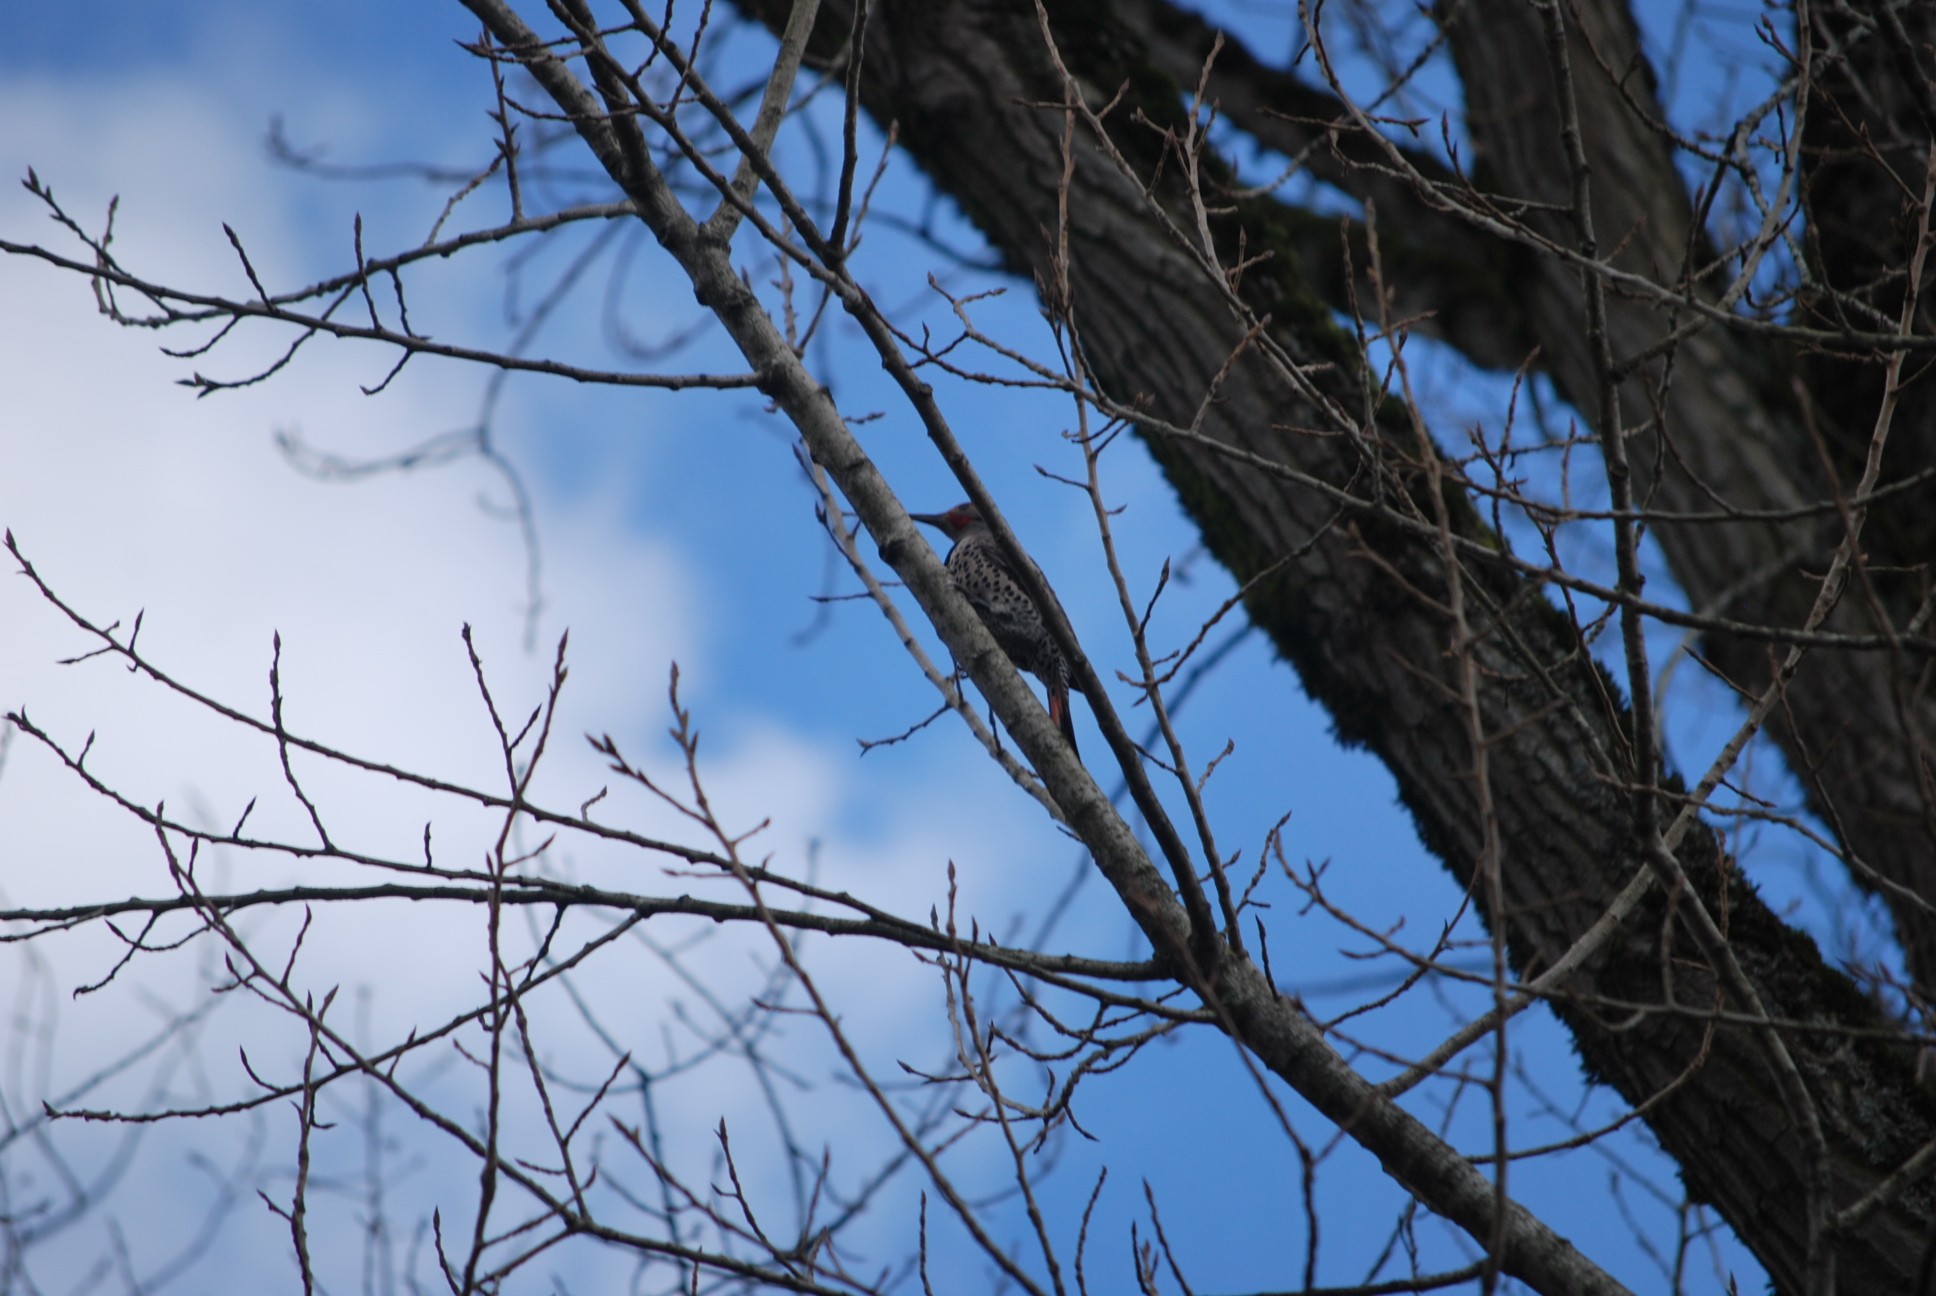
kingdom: Animalia
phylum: Chordata
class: Aves
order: Piciformes
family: Picidae
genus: Colaptes
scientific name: Colaptes auratus
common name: Northern flicker
